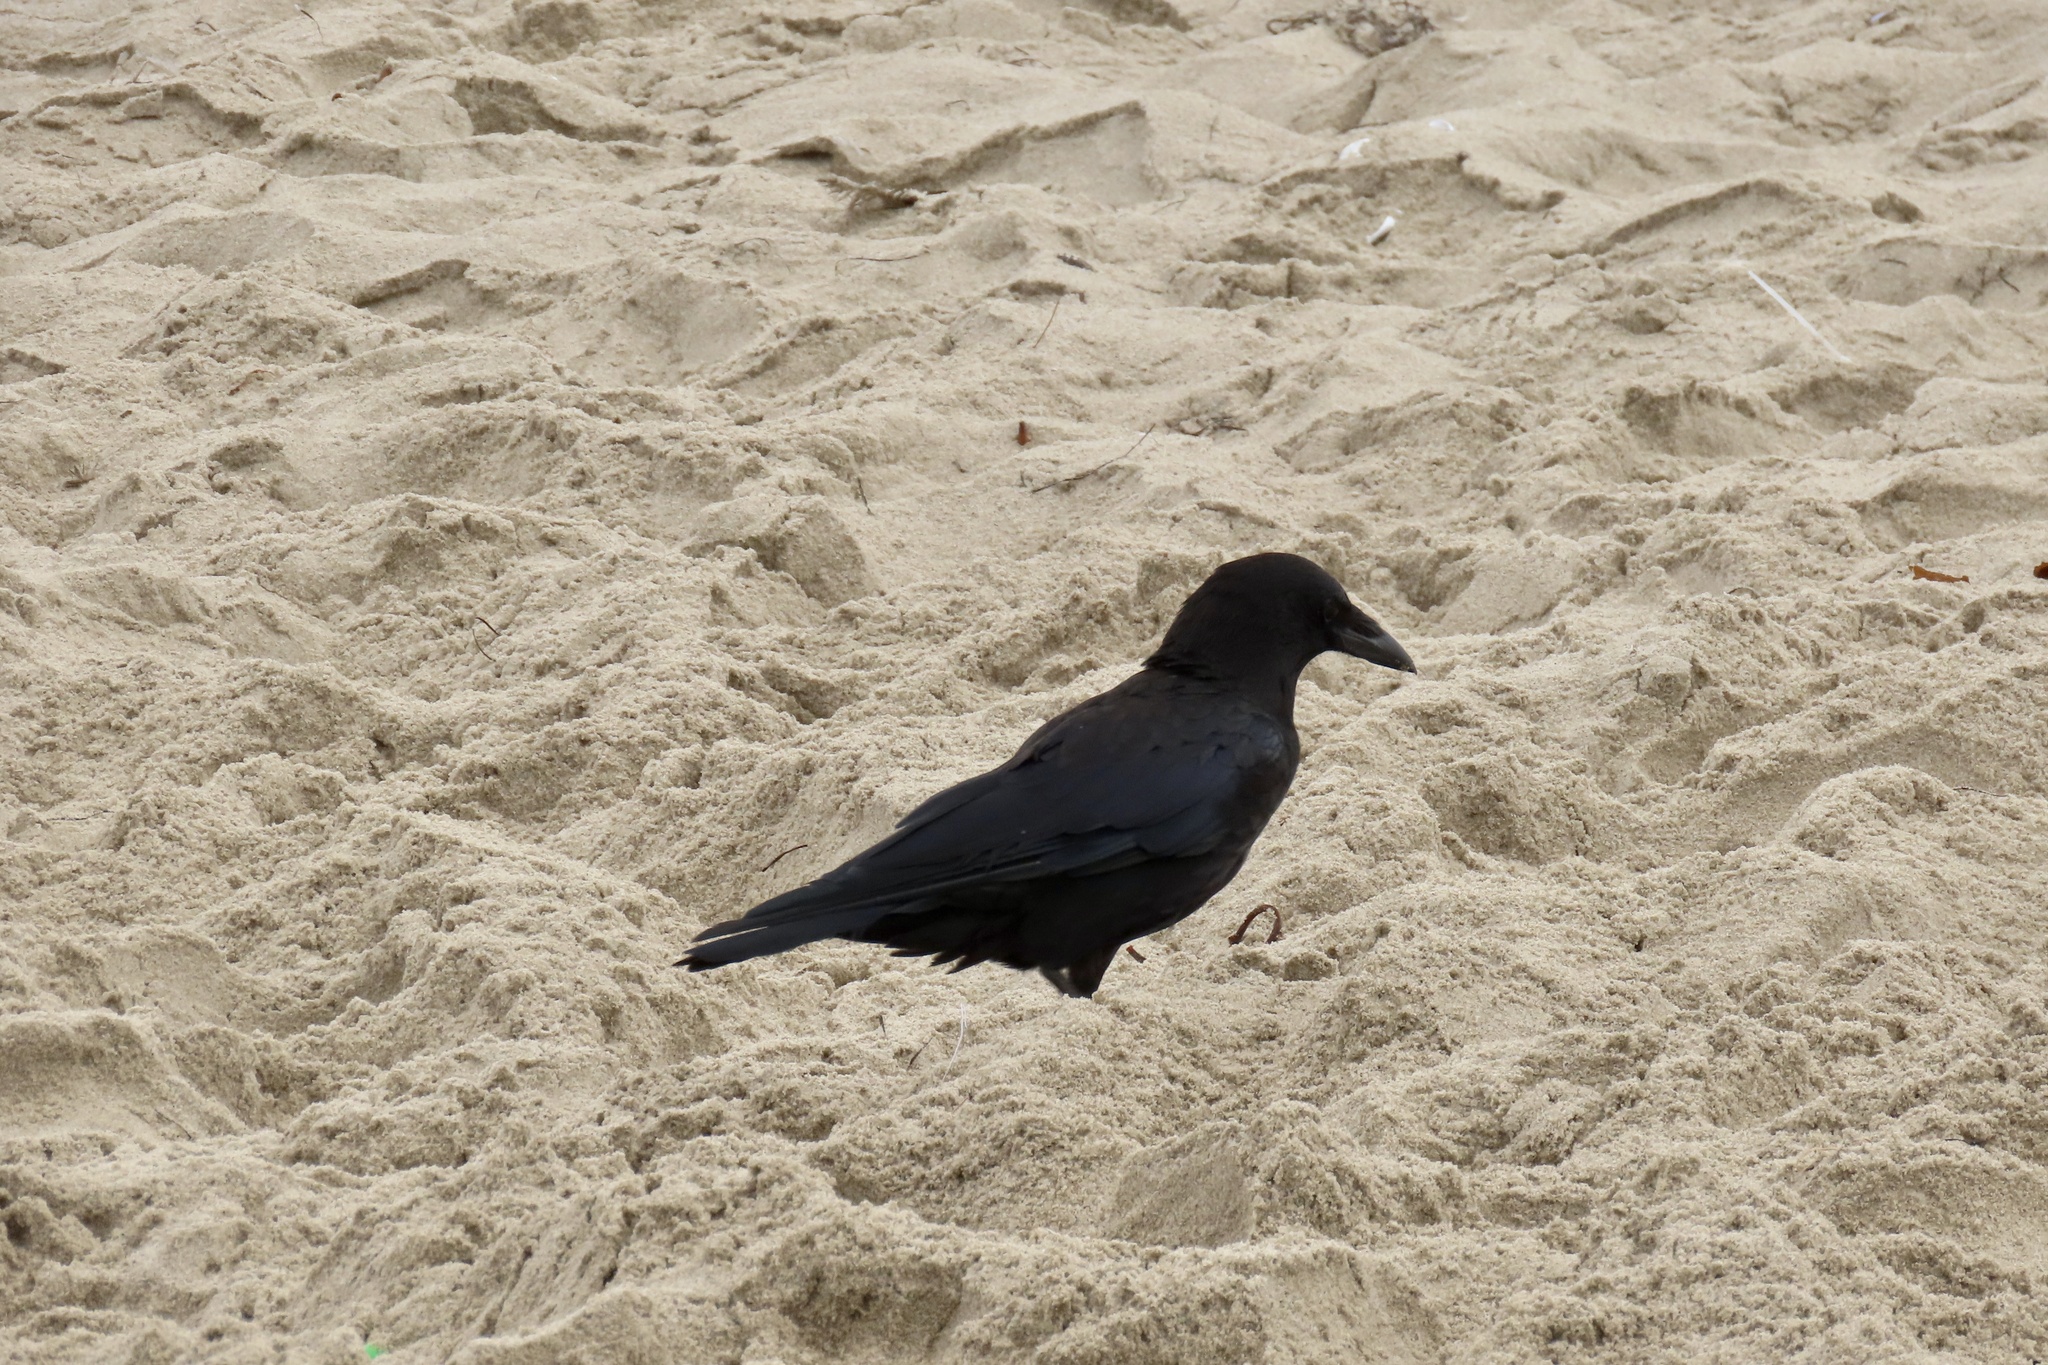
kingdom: Animalia
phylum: Chordata
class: Aves
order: Passeriformes
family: Corvidae
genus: Corvus
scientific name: Corvus brachyrhynchos
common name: American crow
